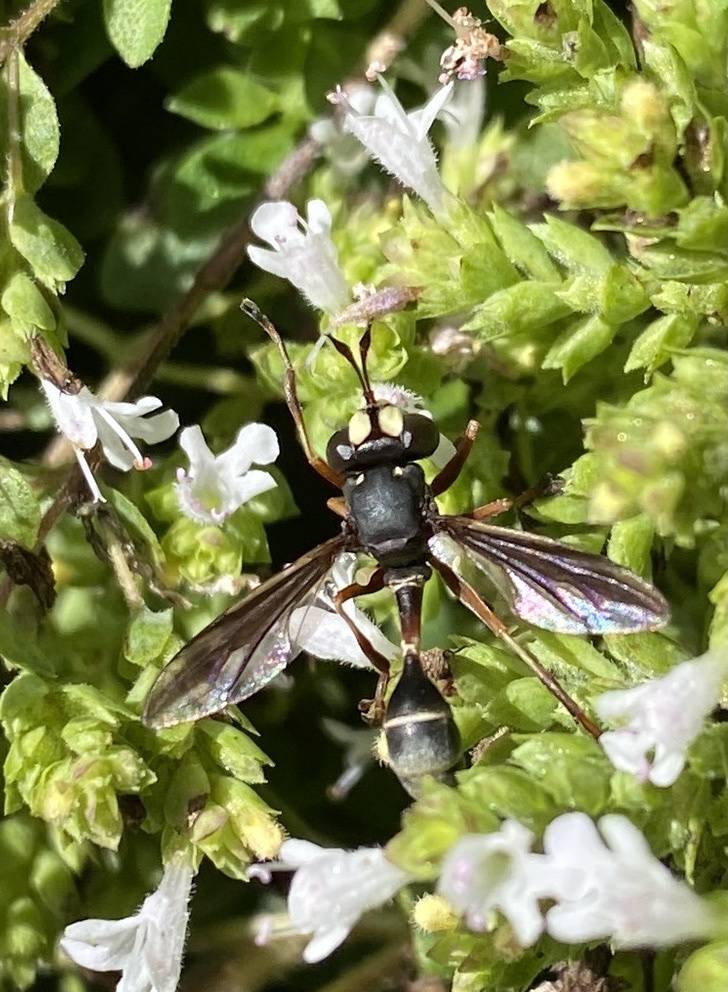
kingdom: Animalia
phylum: Arthropoda
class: Insecta
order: Diptera
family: Conopidae
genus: Physocephala
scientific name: Physocephala furcillata
